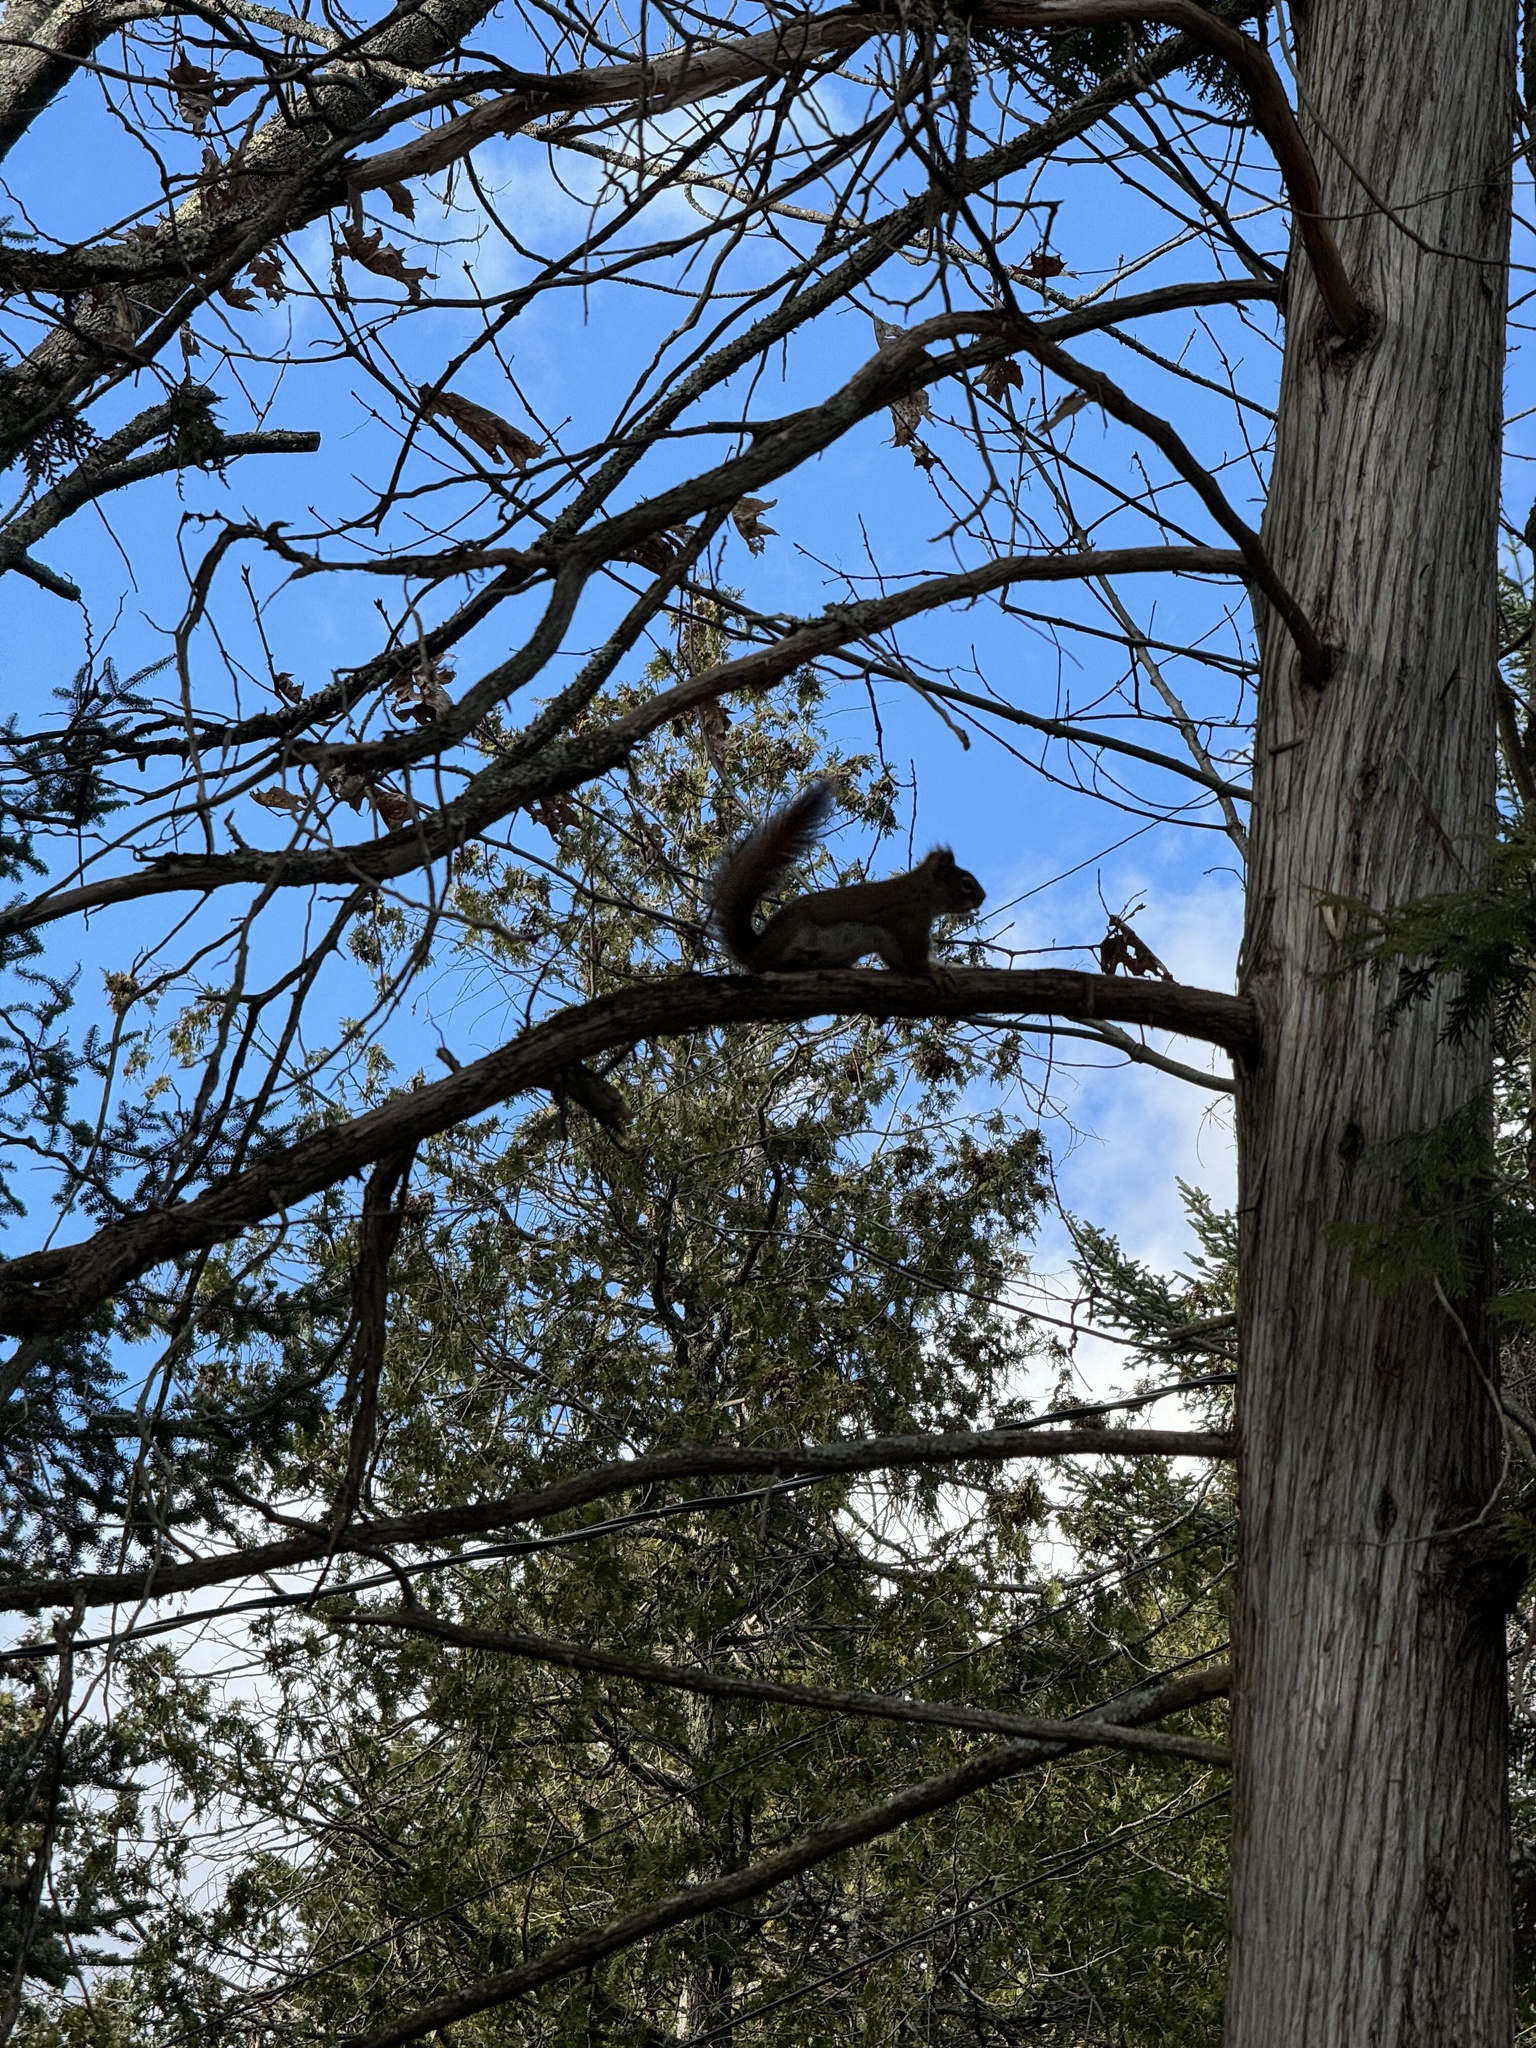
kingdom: Animalia
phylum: Chordata
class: Mammalia
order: Rodentia
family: Sciuridae
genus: Tamiasciurus
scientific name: Tamiasciurus hudsonicus
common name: Red squirrel
